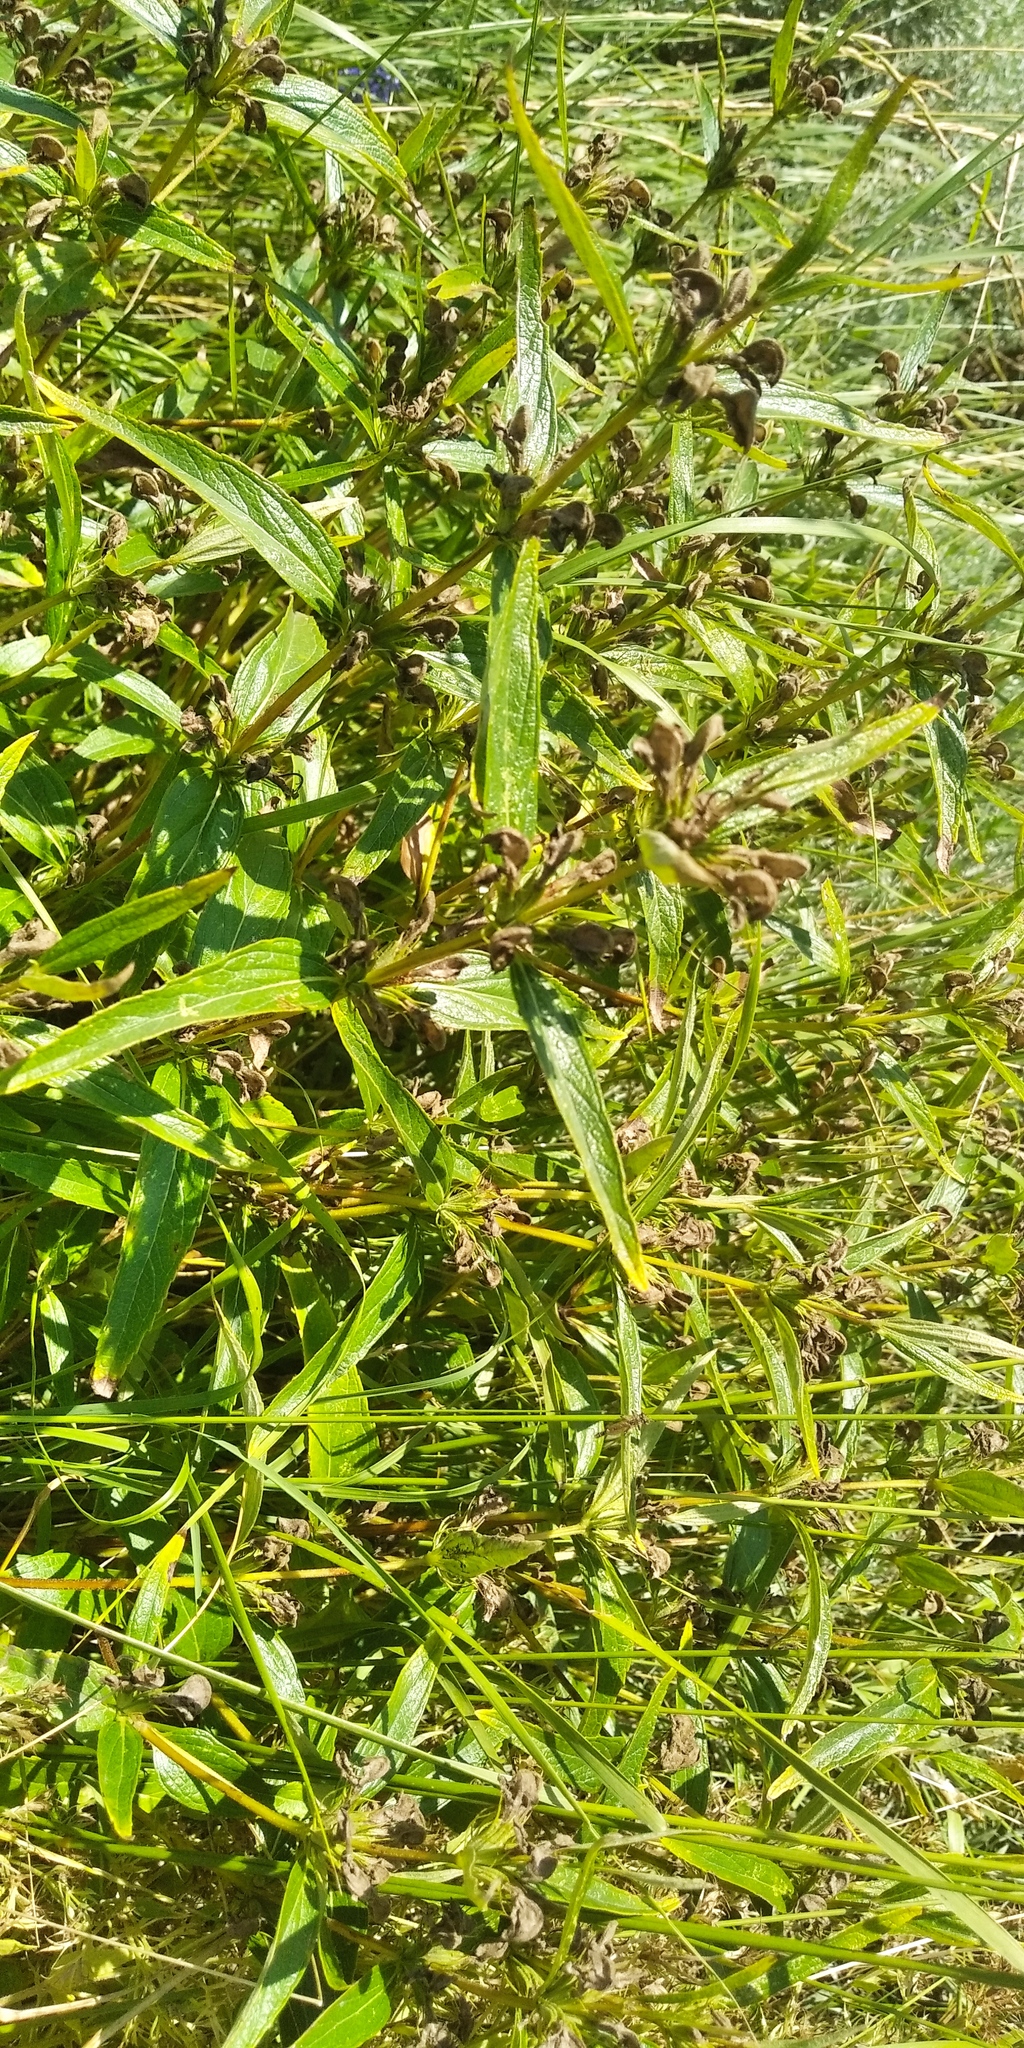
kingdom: Plantae
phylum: Tracheophyta
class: Magnoliopsida
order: Lamiales
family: Lamiaceae
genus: Phlomis
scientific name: Phlomis herba-venti
